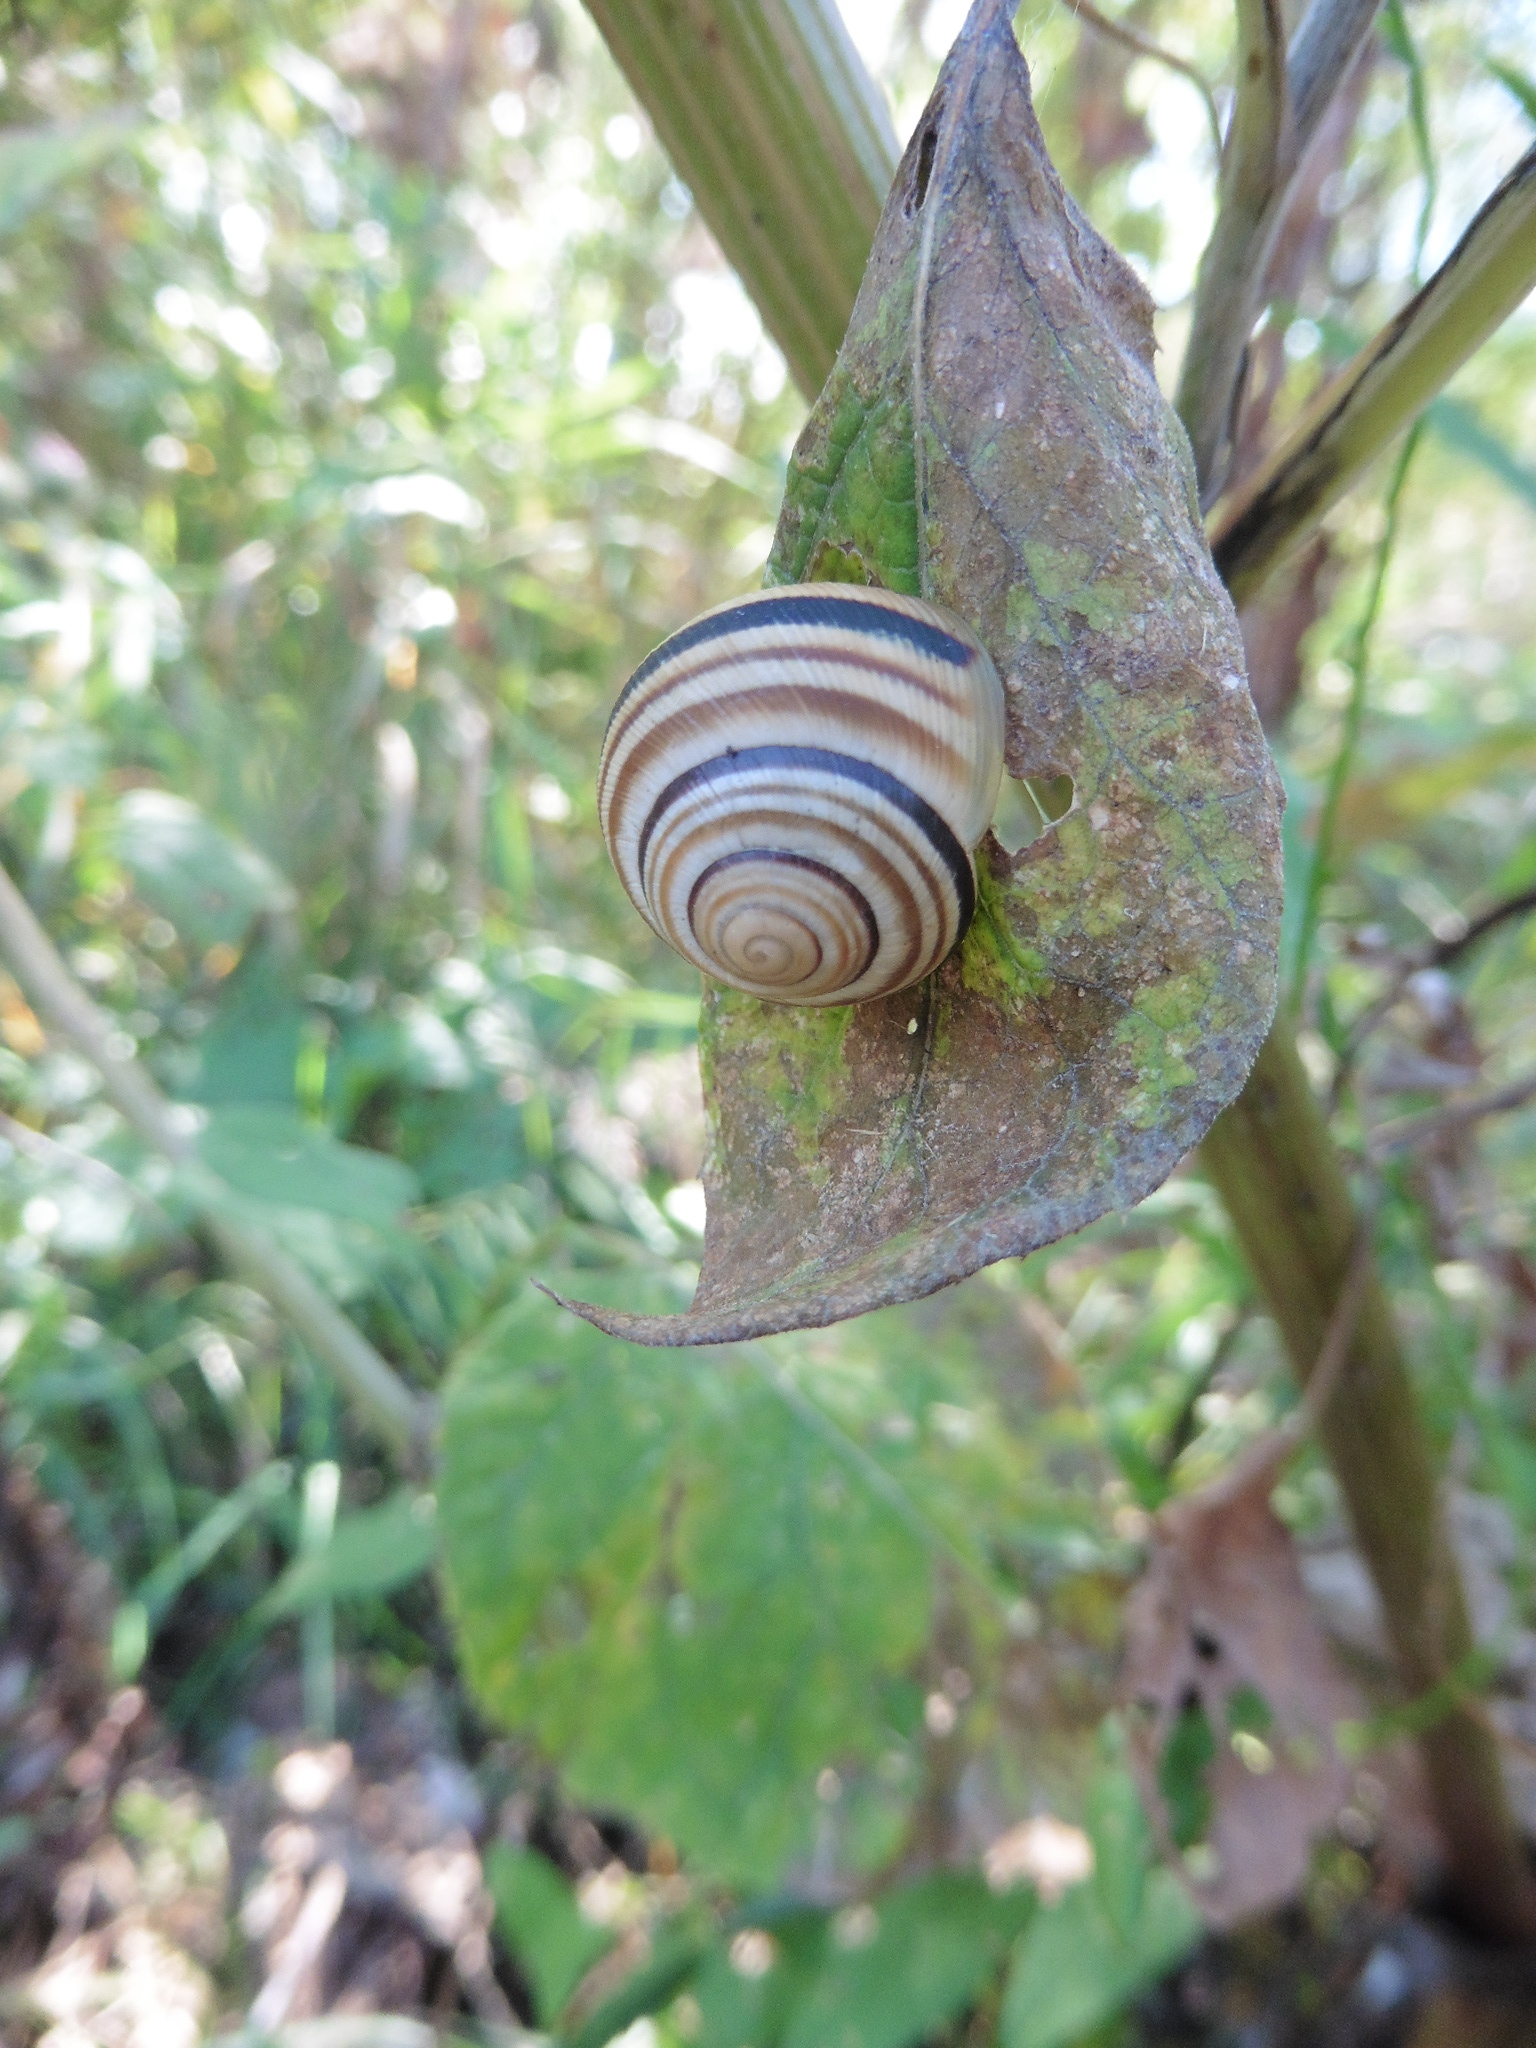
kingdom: Animalia
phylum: Mollusca
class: Gastropoda
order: Stylommatophora
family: Helicidae
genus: Caucasotachea
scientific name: Caucasotachea vindobonensis
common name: European helicid land snail
